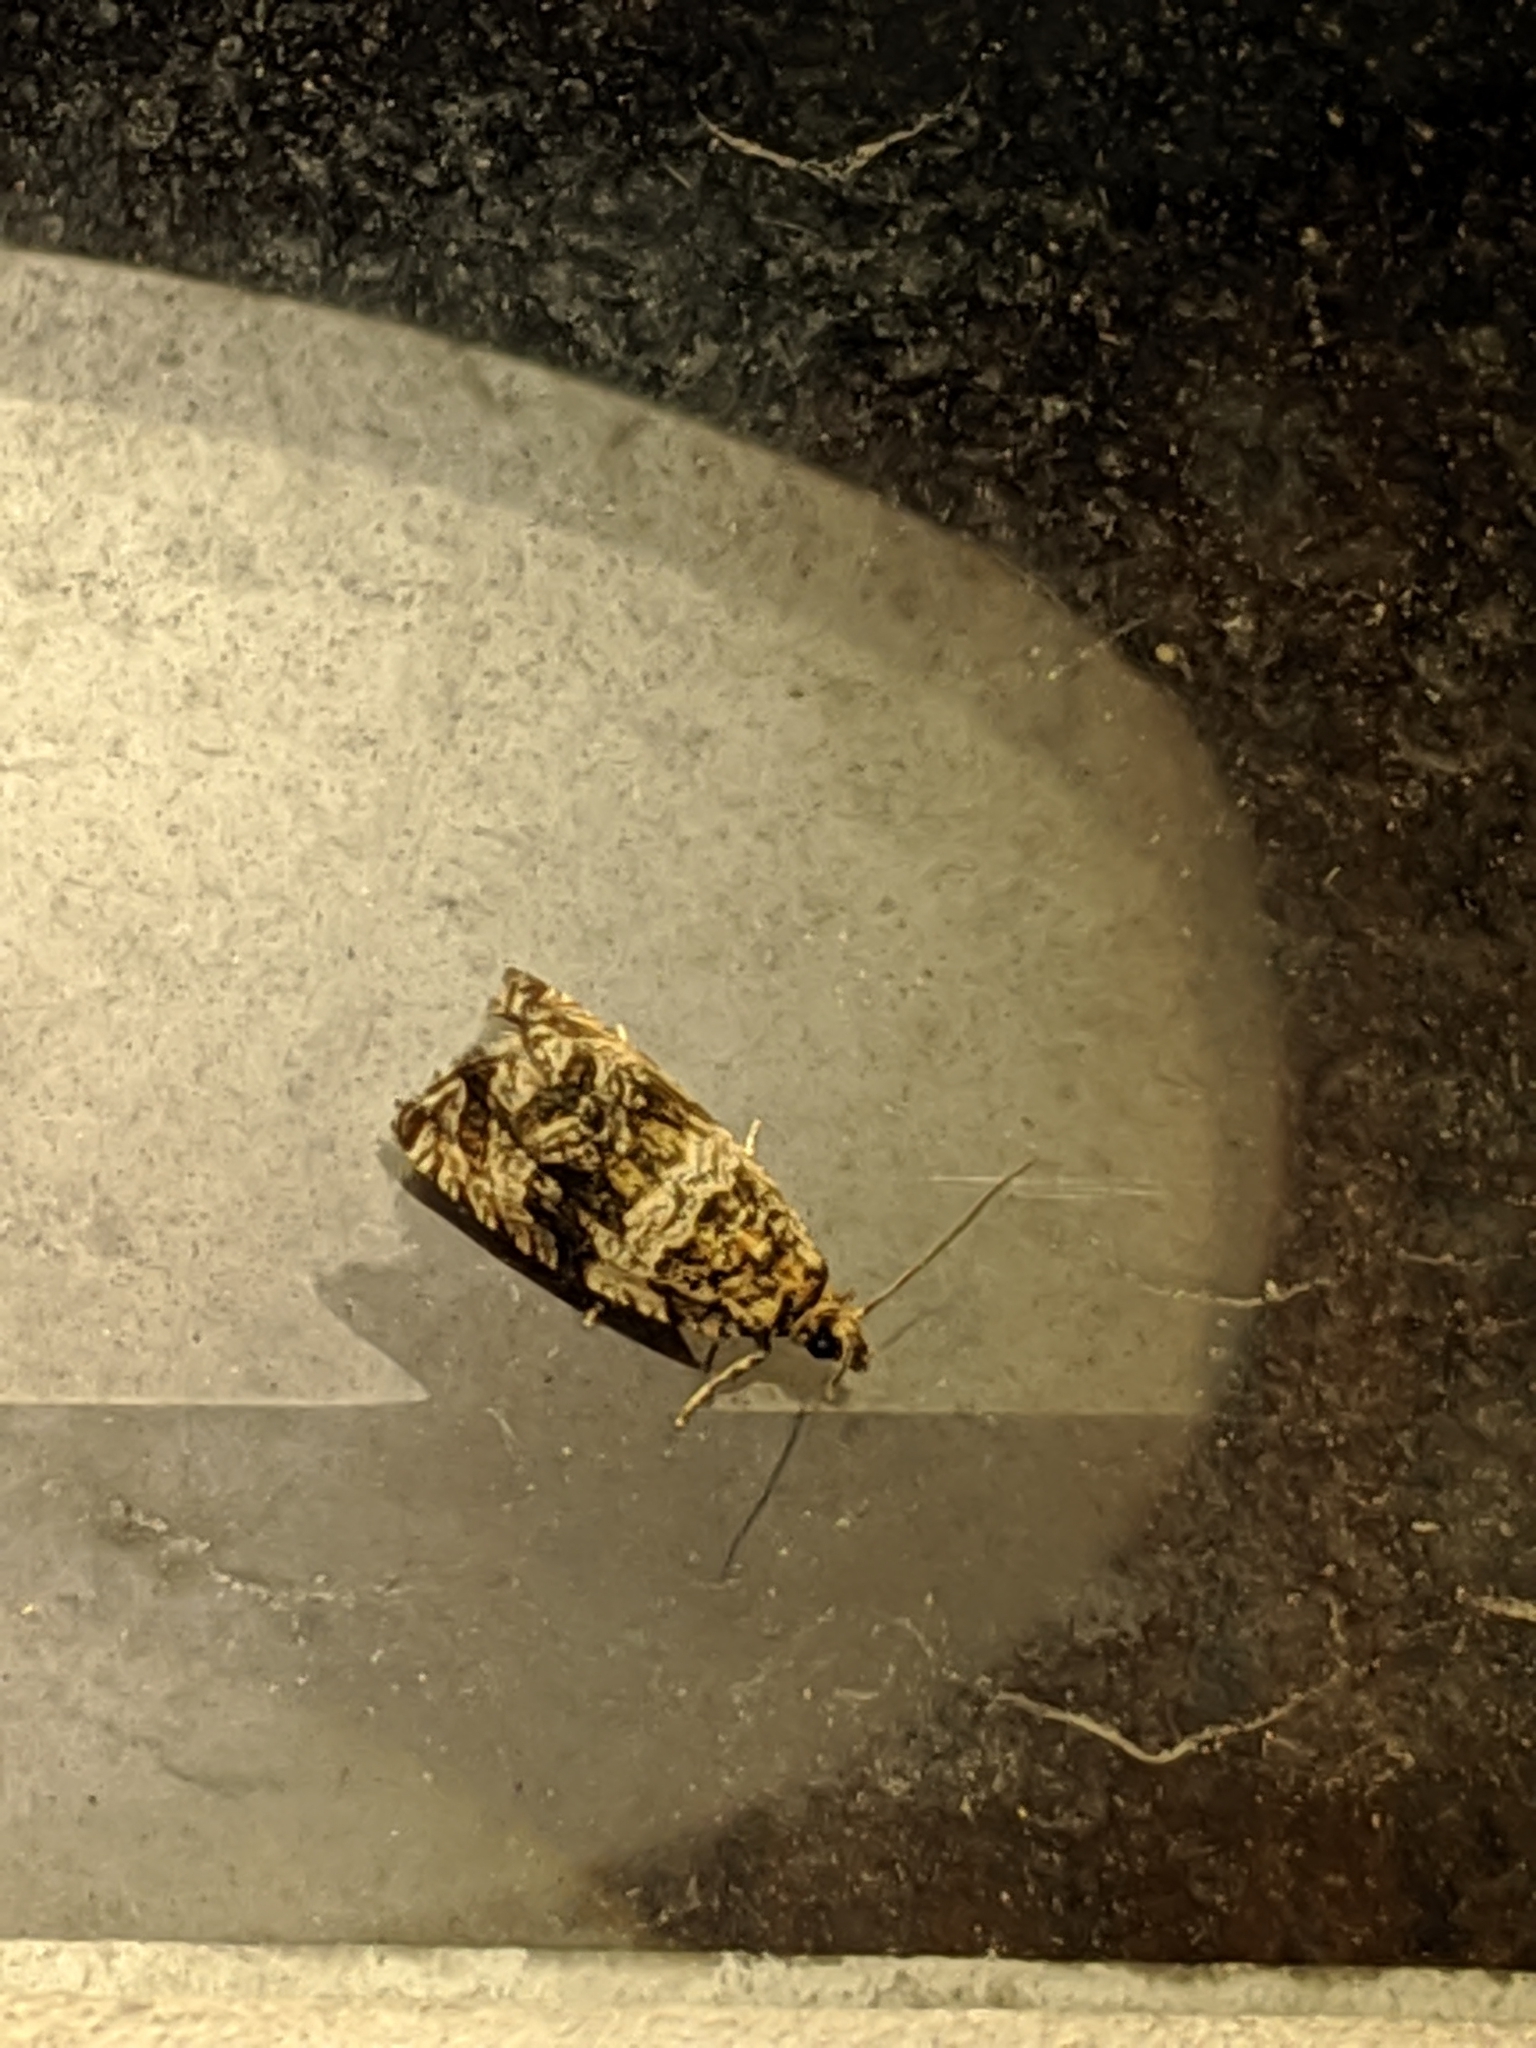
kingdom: Animalia
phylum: Arthropoda
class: Insecta
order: Lepidoptera
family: Tortricidae
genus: Celypha
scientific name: Celypha cespitana
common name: Thyme marble
